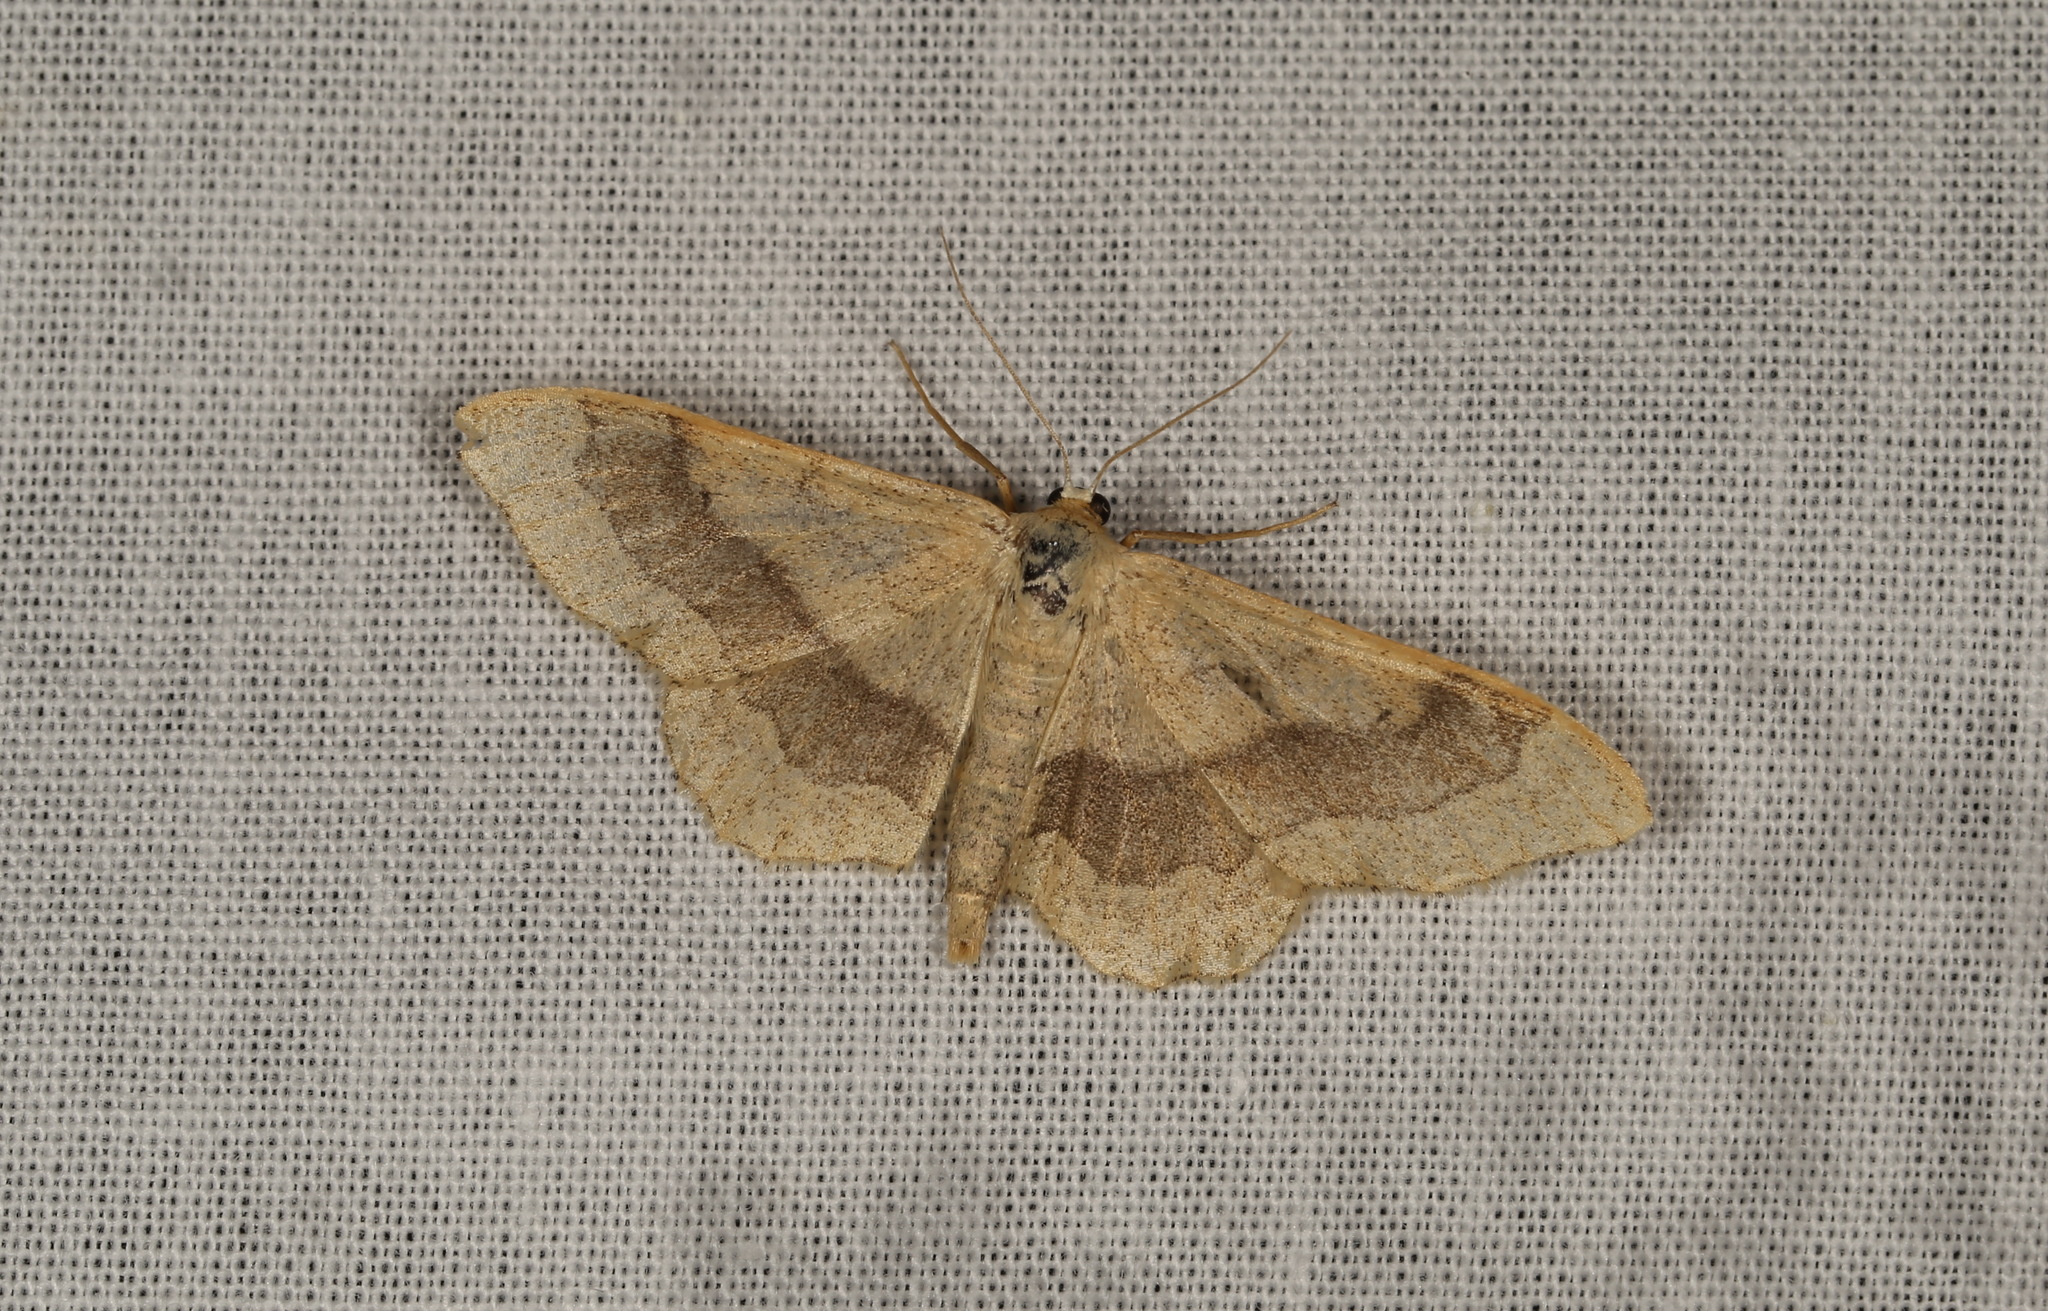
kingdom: Animalia
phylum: Arthropoda
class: Insecta
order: Lepidoptera
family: Geometridae
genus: Idaea
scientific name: Idaea aversata
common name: Riband wave
